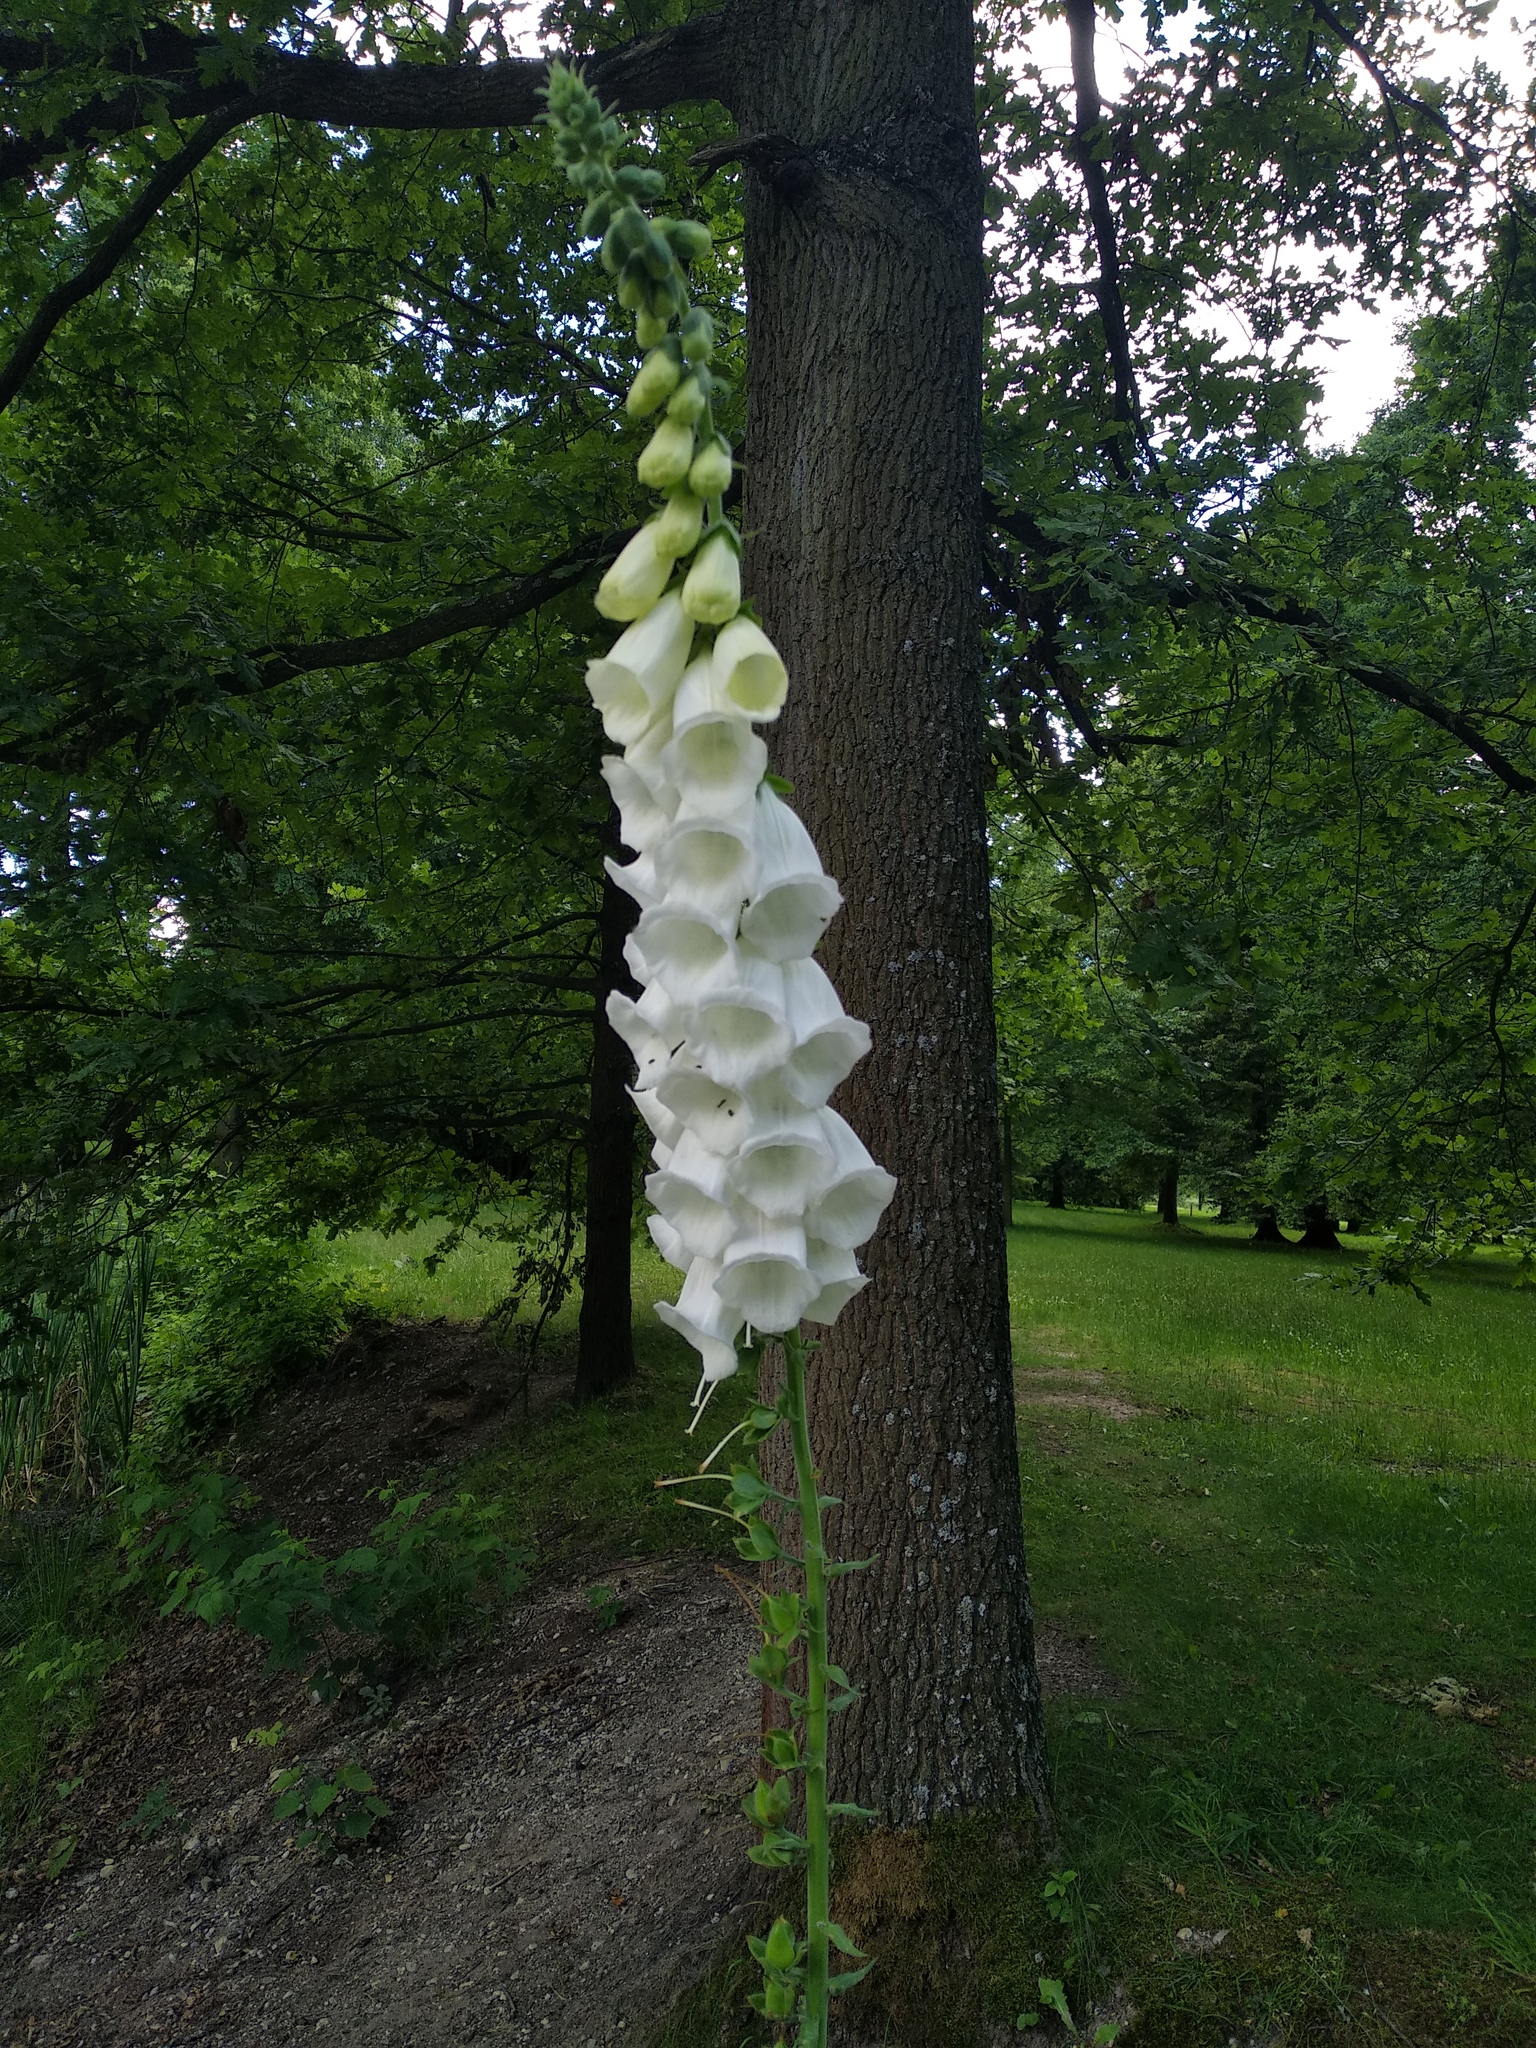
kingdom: Plantae
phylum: Tracheophyta
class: Magnoliopsida
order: Lamiales
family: Plantaginaceae
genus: Digitalis
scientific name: Digitalis purpurea
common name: Foxglove
